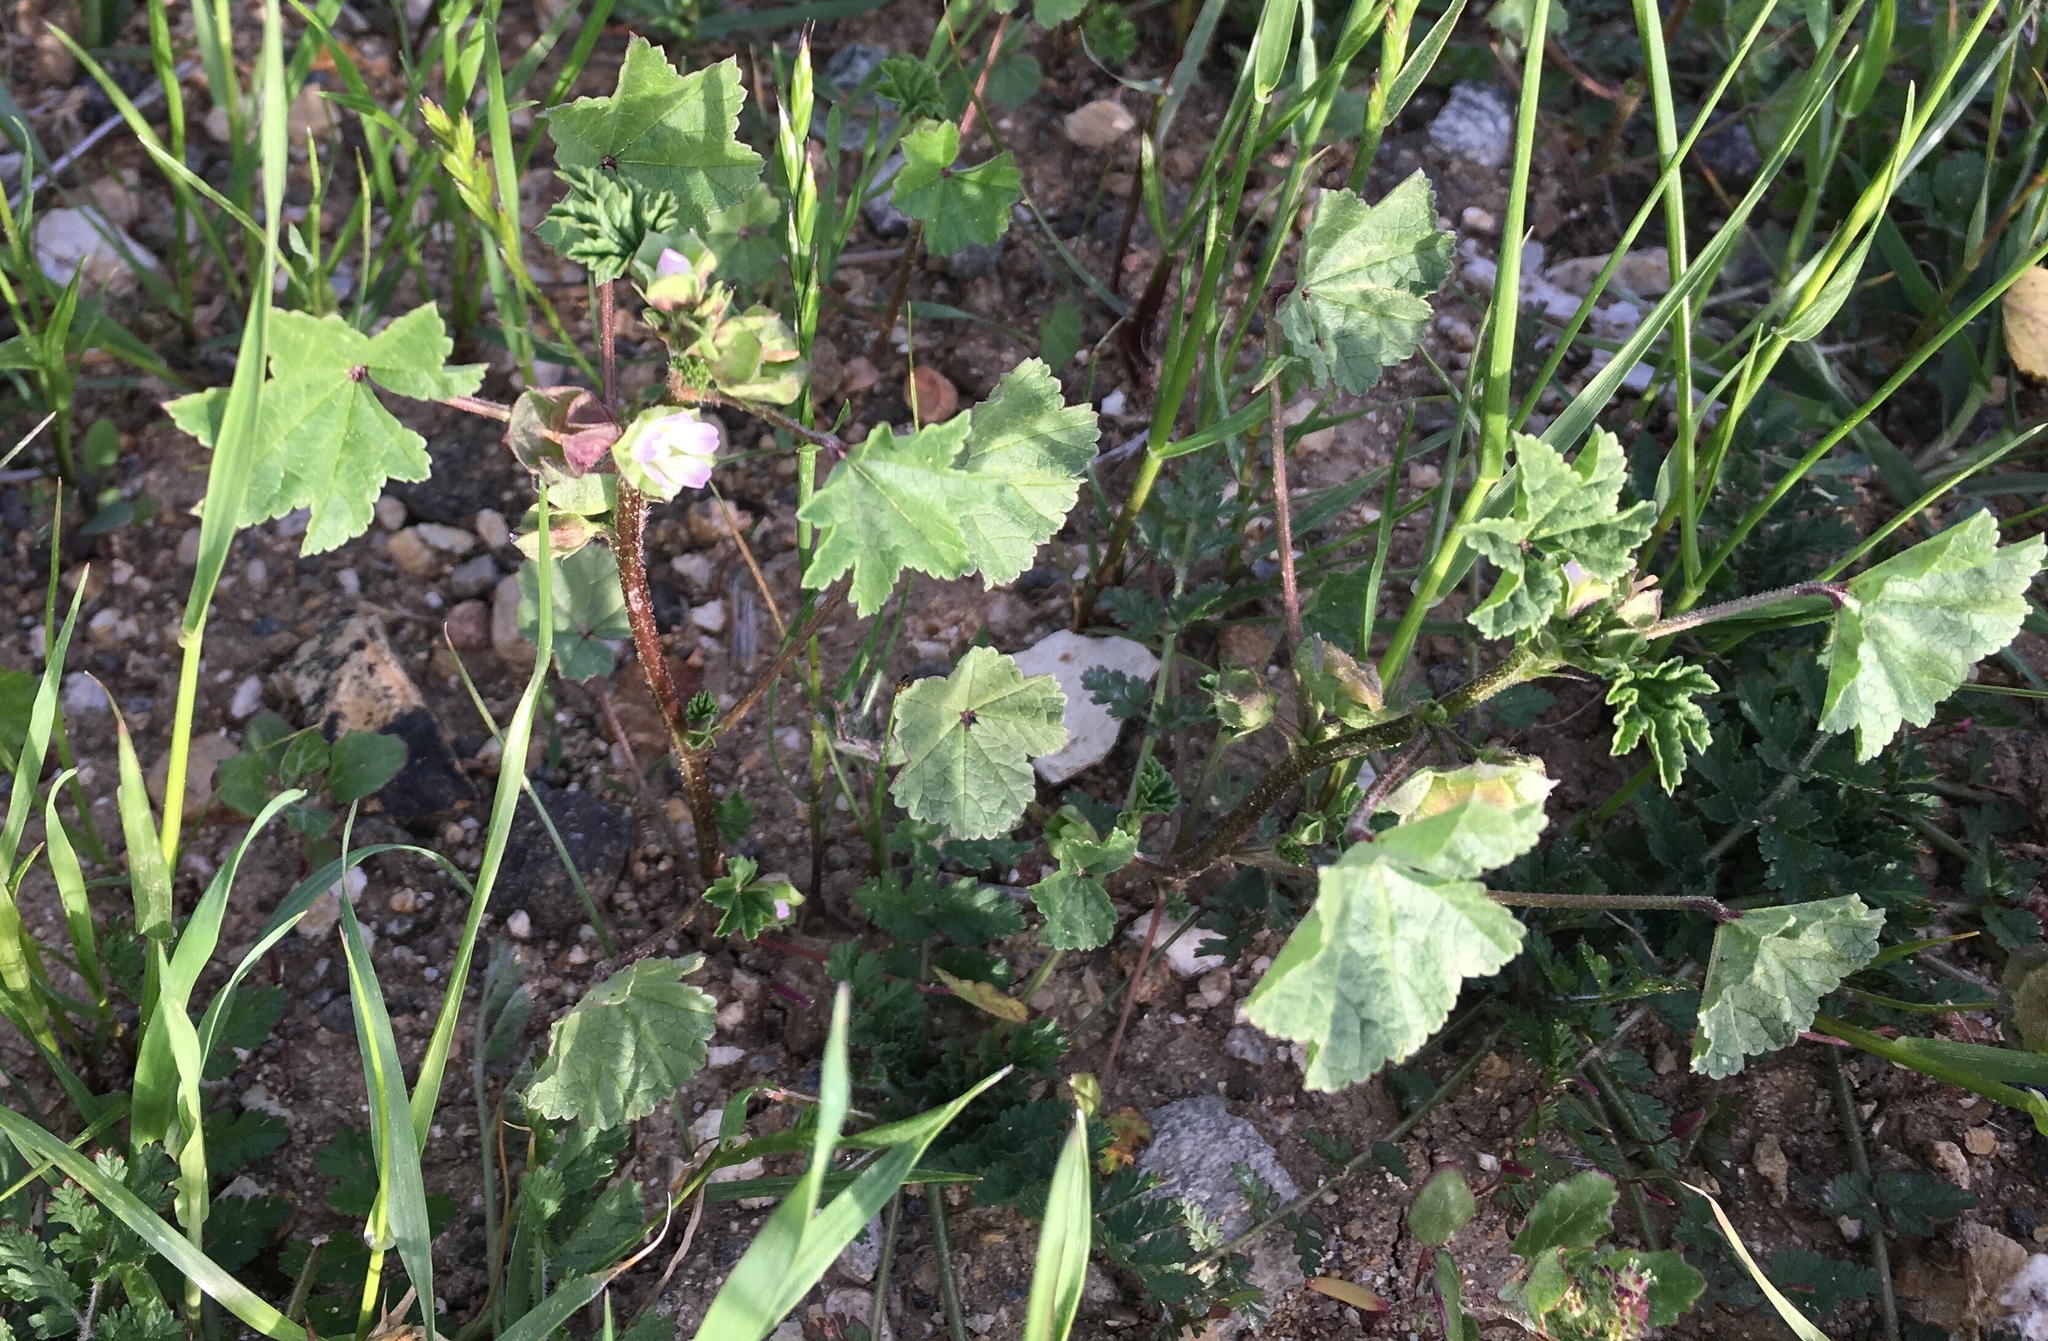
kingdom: Plantae
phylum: Tracheophyta
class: Magnoliopsida
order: Malvales
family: Malvaceae
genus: Malva
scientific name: Malva parviflora
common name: Least mallow
